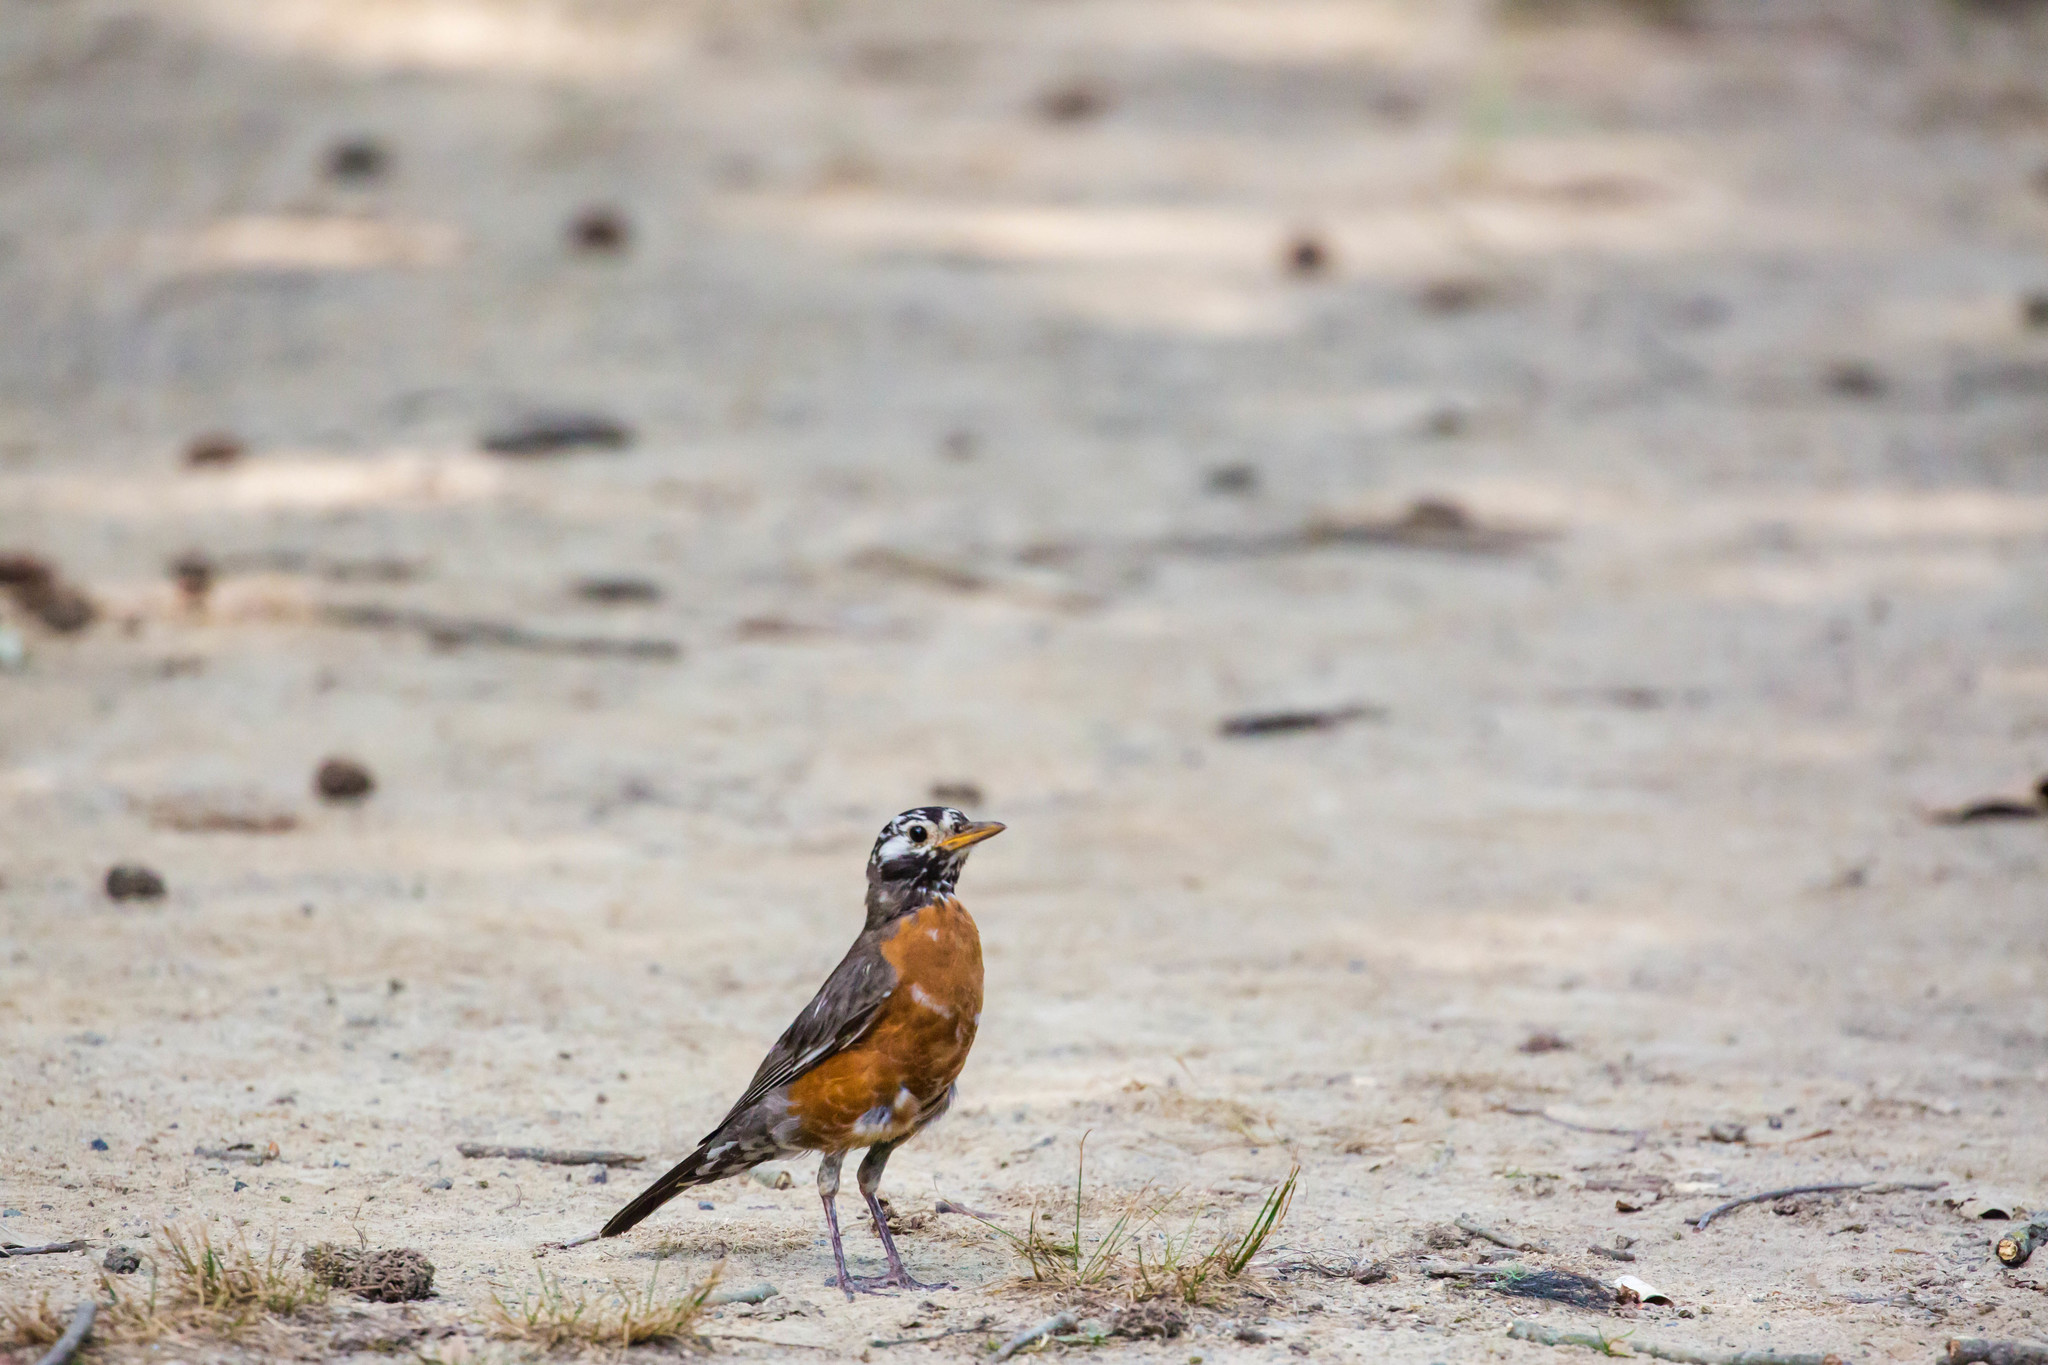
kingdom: Animalia
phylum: Chordata
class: Aves
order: Passeriformes
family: Turdidae
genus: Turdus
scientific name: Turdus migratorius
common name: American robin
